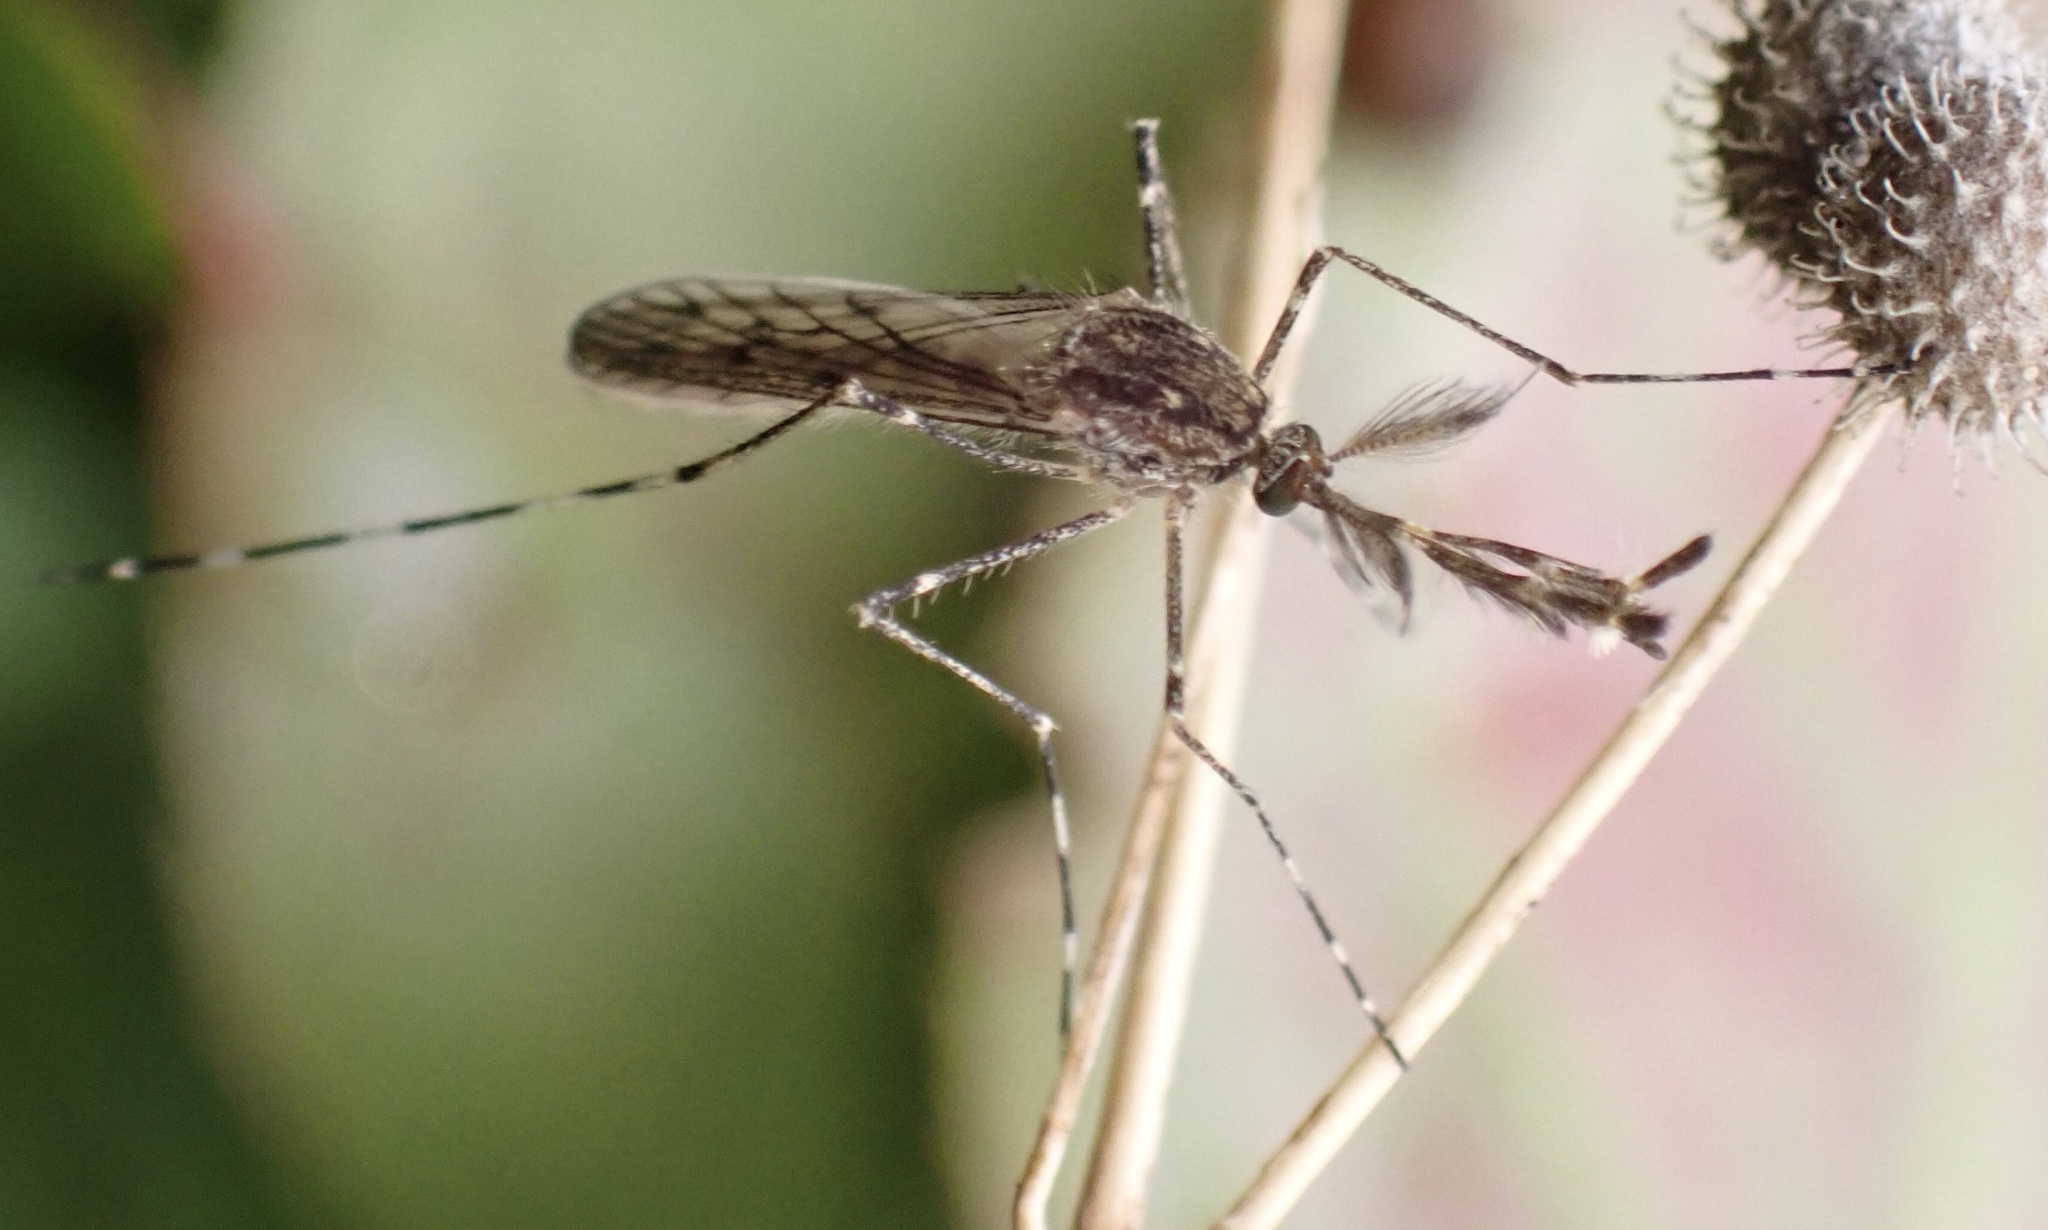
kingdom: Animalia
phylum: Arthropoda
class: Insecta
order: Diptera
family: Culicidae
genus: Culiseta
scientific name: Culiseta annulata
